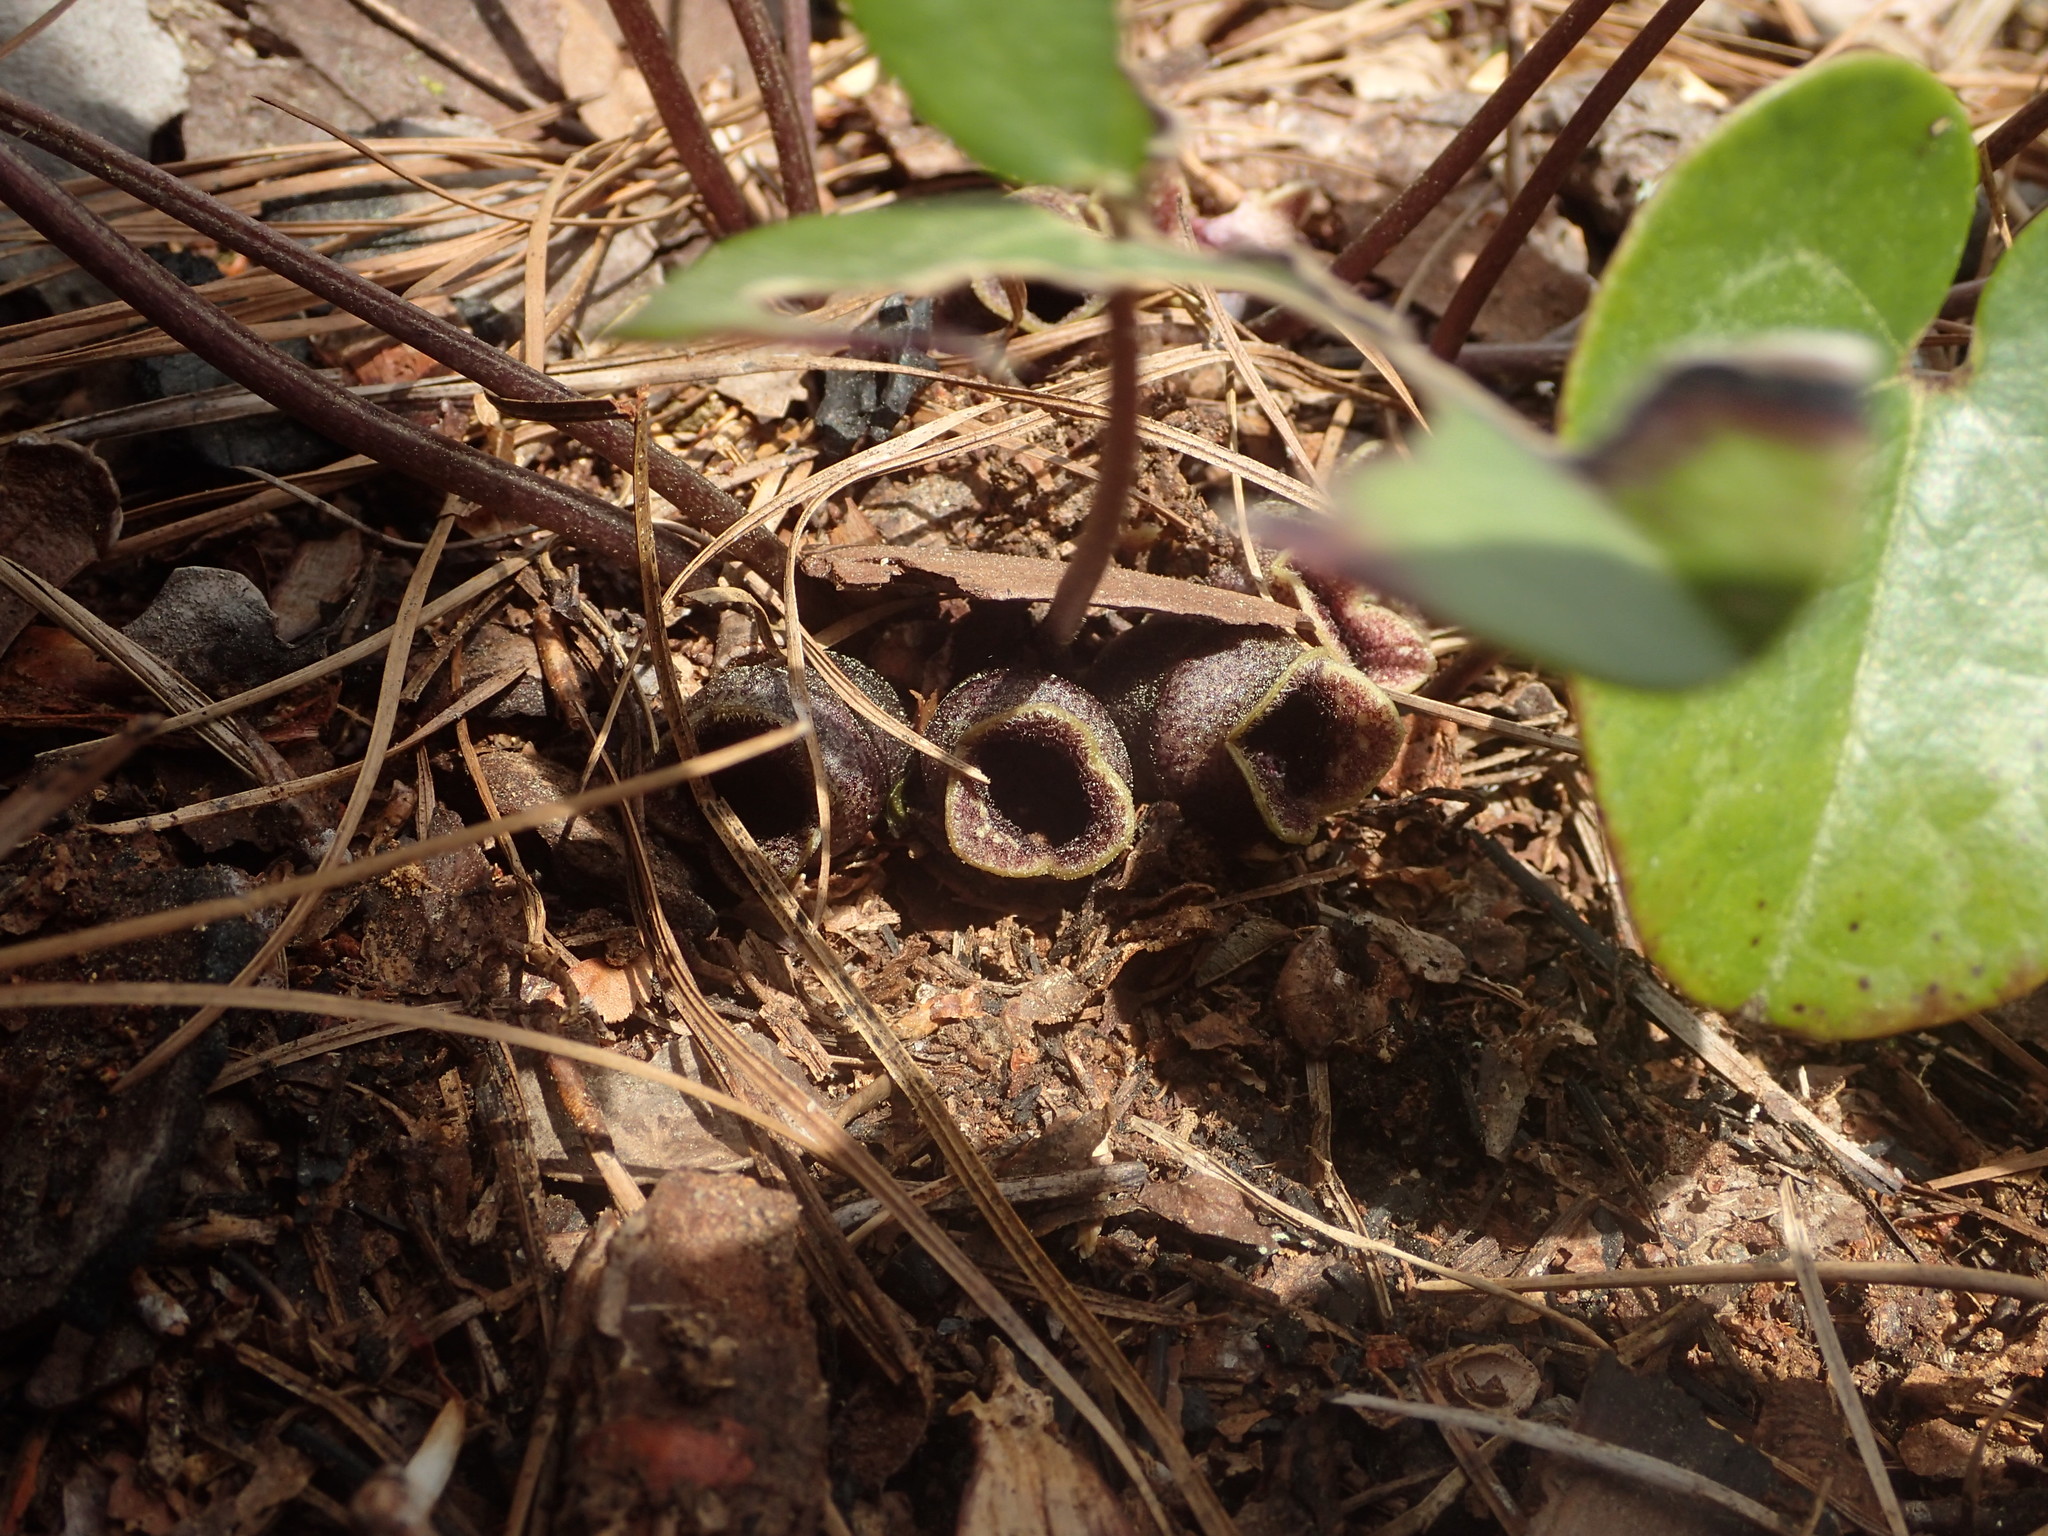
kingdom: Plantae
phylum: Tracheophyta
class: Magnoliopsida
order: Piperales
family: Aristolochiaceae
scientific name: Aristolochiaceae
